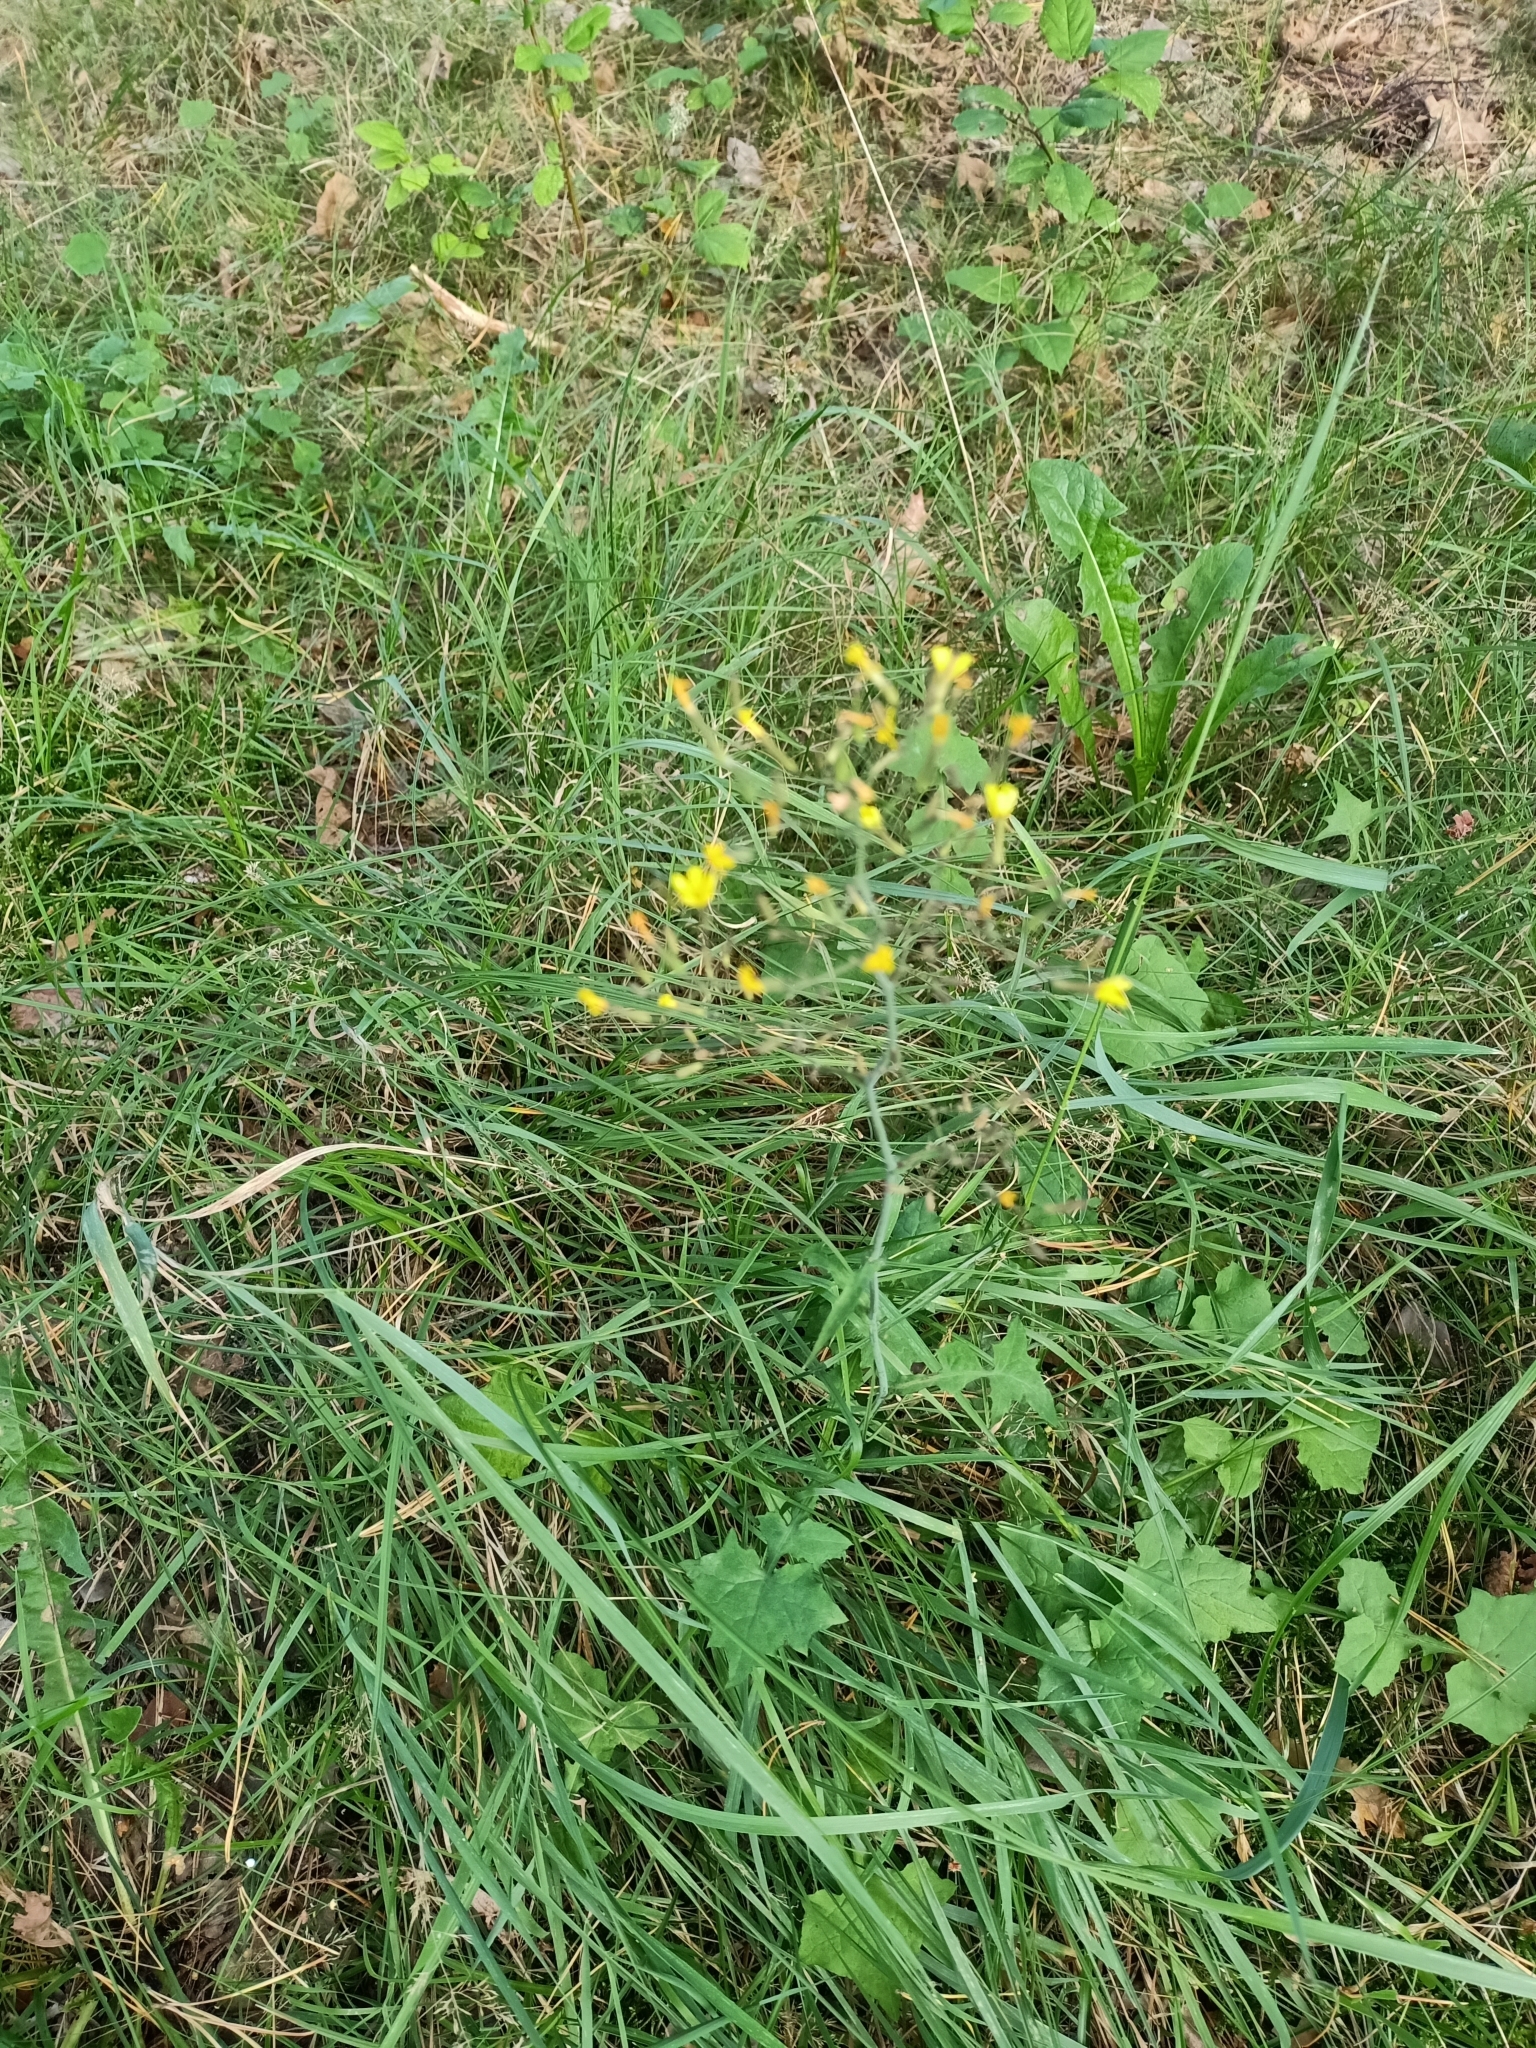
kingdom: Plantae
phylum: Tracheophyta
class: Magnoliopsida
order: Asterales
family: Asteraceae
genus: Mycelis
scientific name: Mycelis muralis
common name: Wall lettuce
